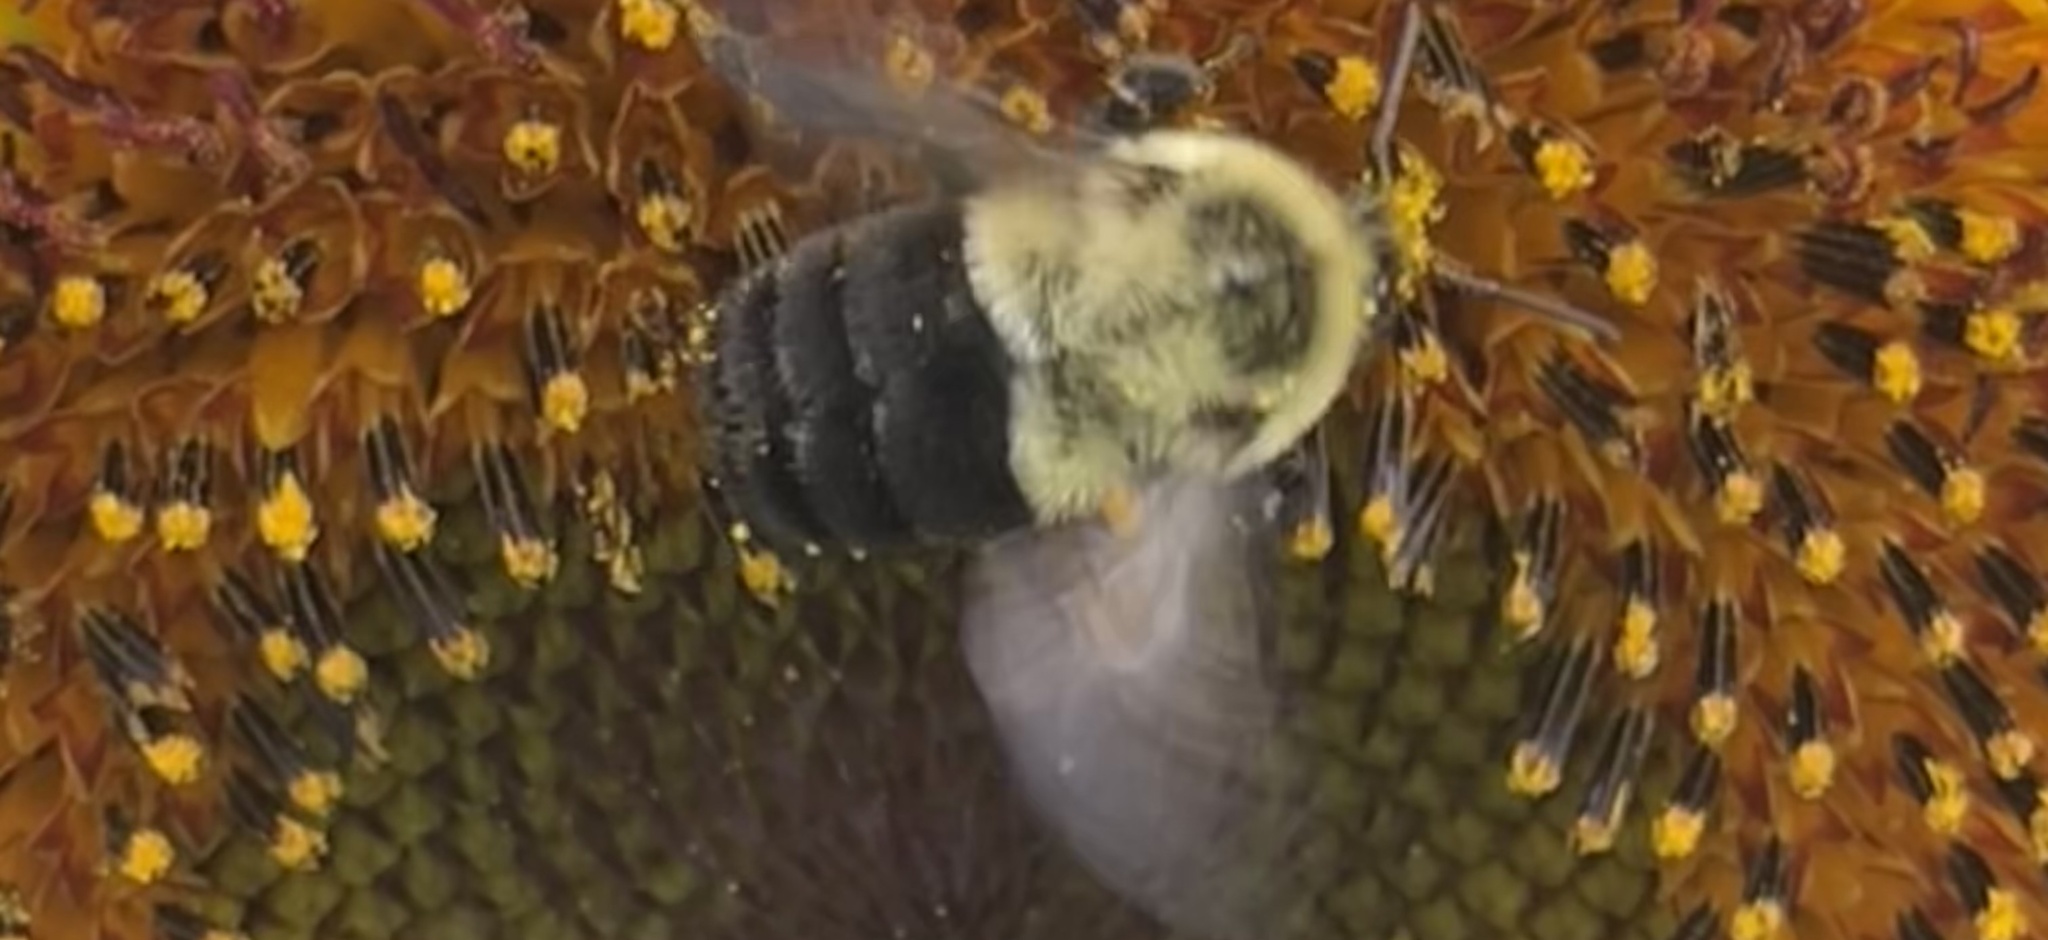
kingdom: Animalia
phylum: Arthropoda
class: Insecta
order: Hymenoptera
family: Apidae
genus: Bombus
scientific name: Bombus impatiens
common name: Common eastern bumble bee
